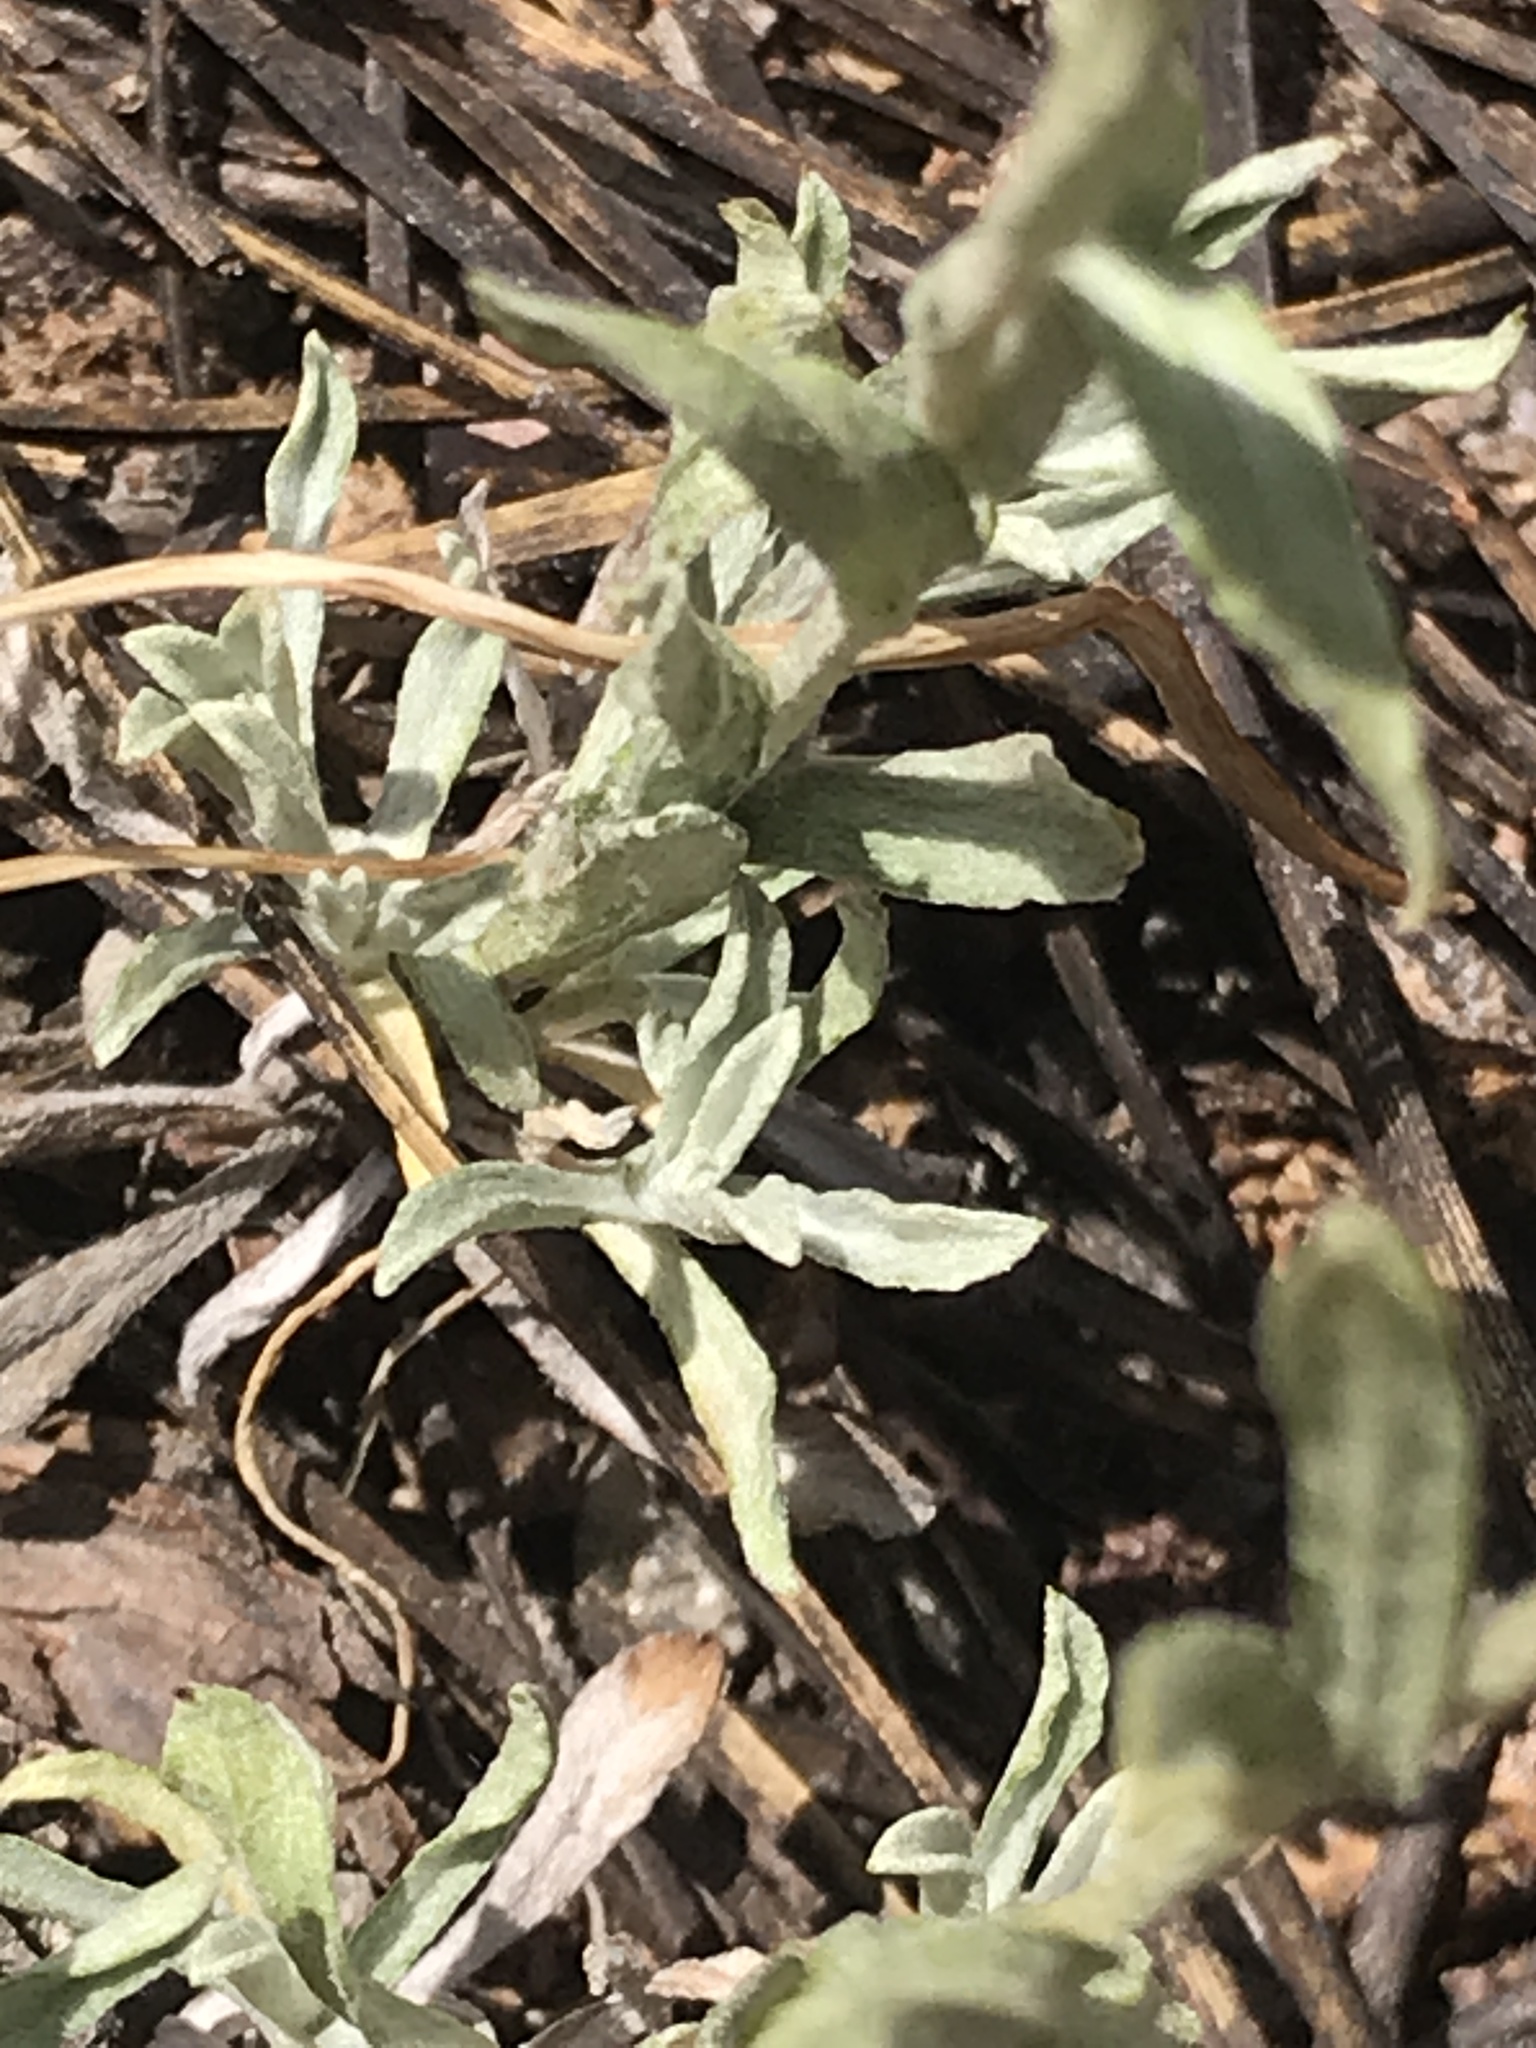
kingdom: Plantae
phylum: Tracheophyta
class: Magnoliopsida
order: Asterales
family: Asteraceae
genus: Antennaria
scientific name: Antennaria rosea
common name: Rosy pussytoes
